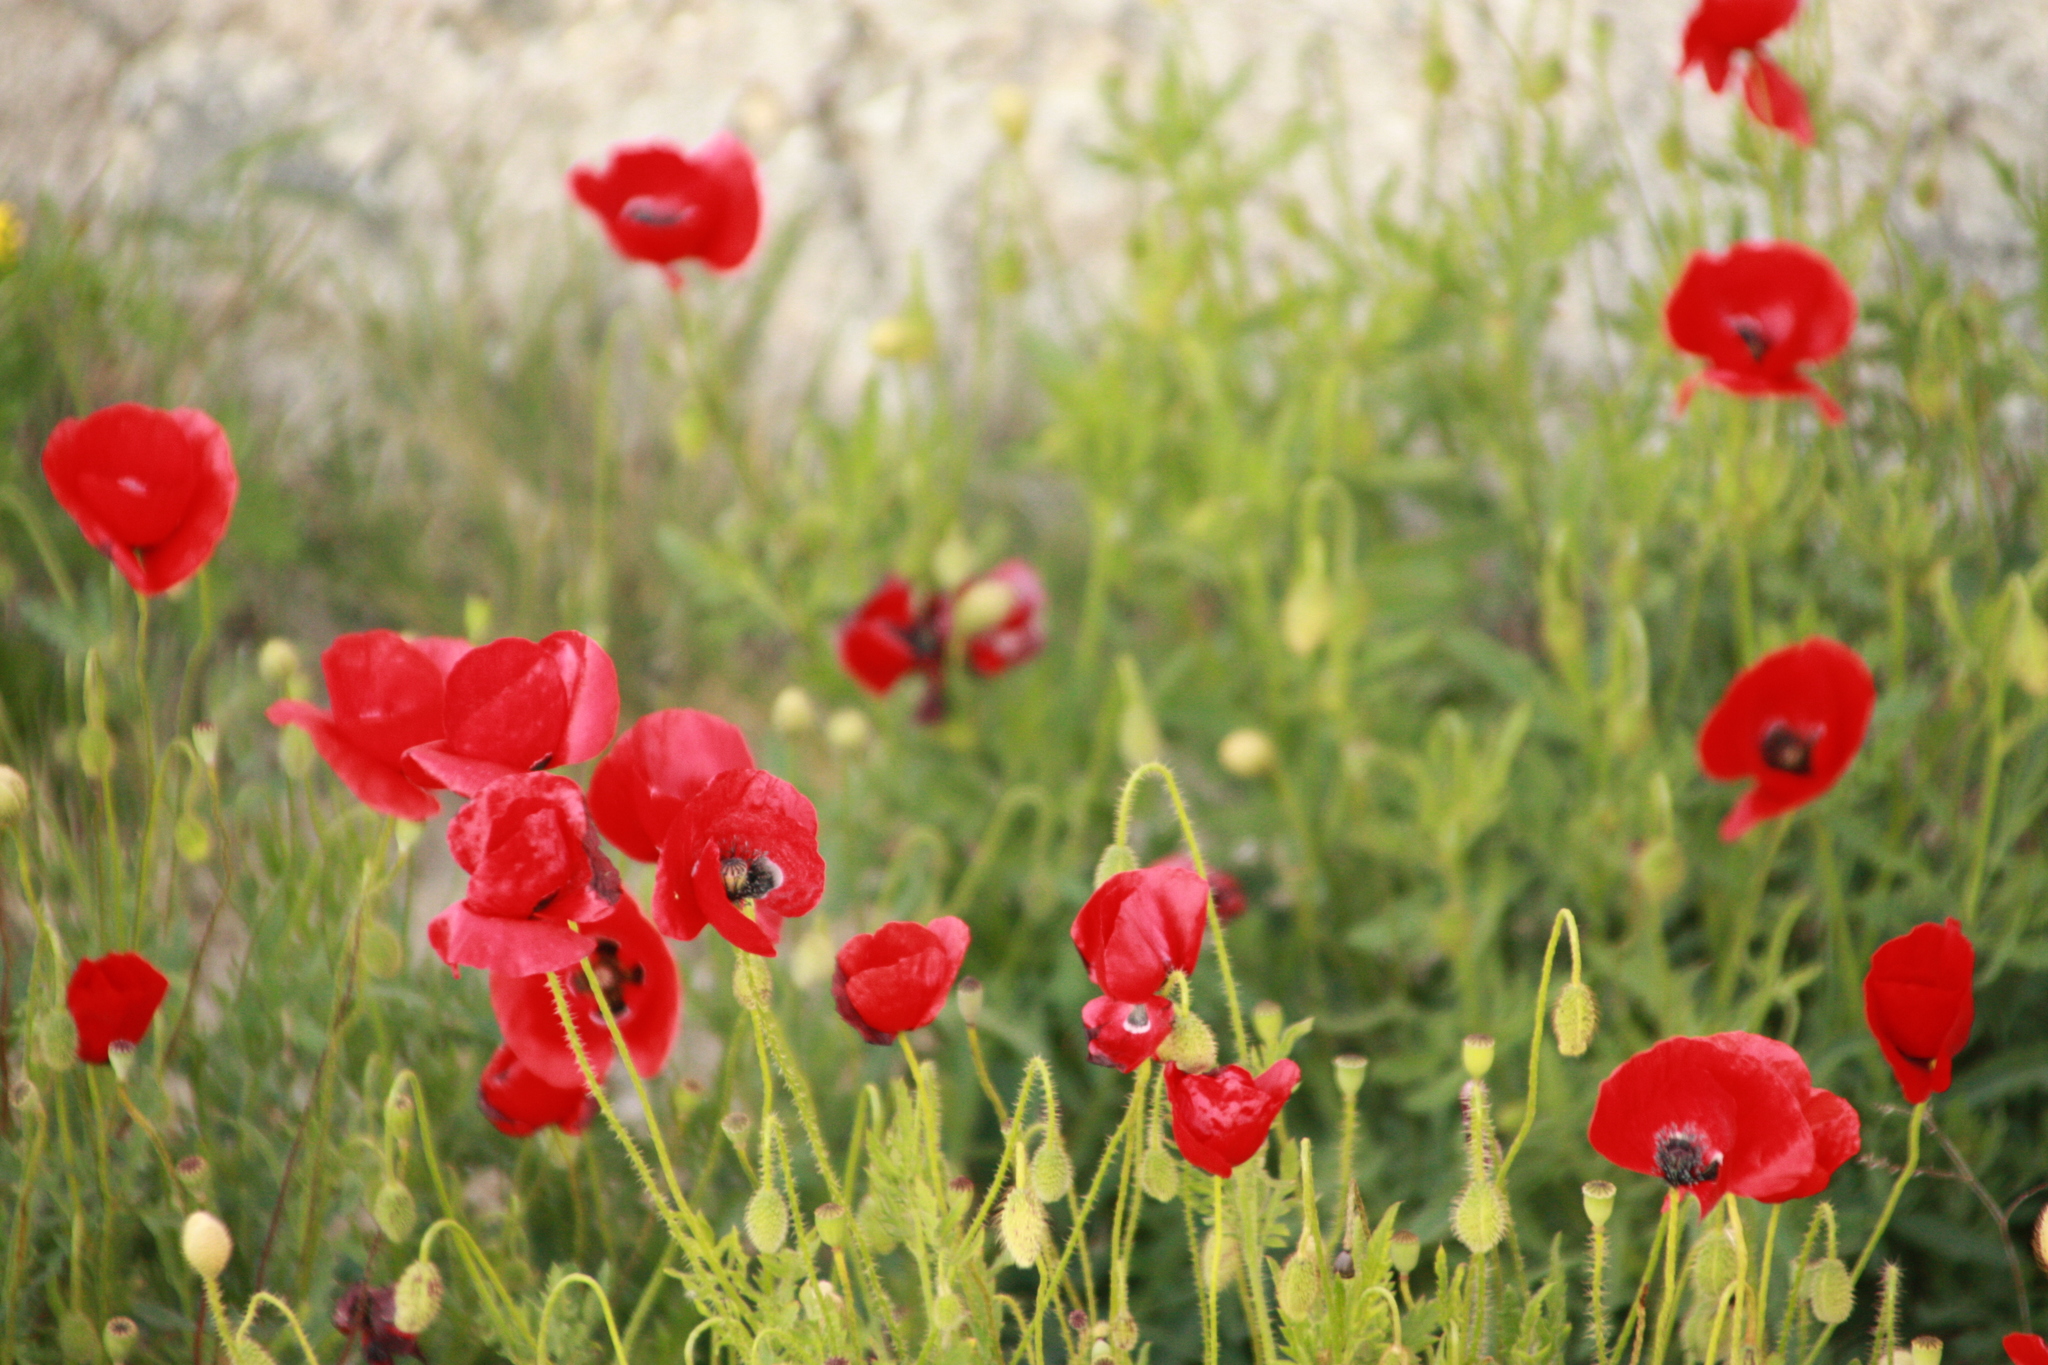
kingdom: Plantae
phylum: Tracheophyta
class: Magnoliopsida
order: Ranunculales
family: Papaveraceae
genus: Papaver
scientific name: Papaver rhoeas
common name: Corn poppy
